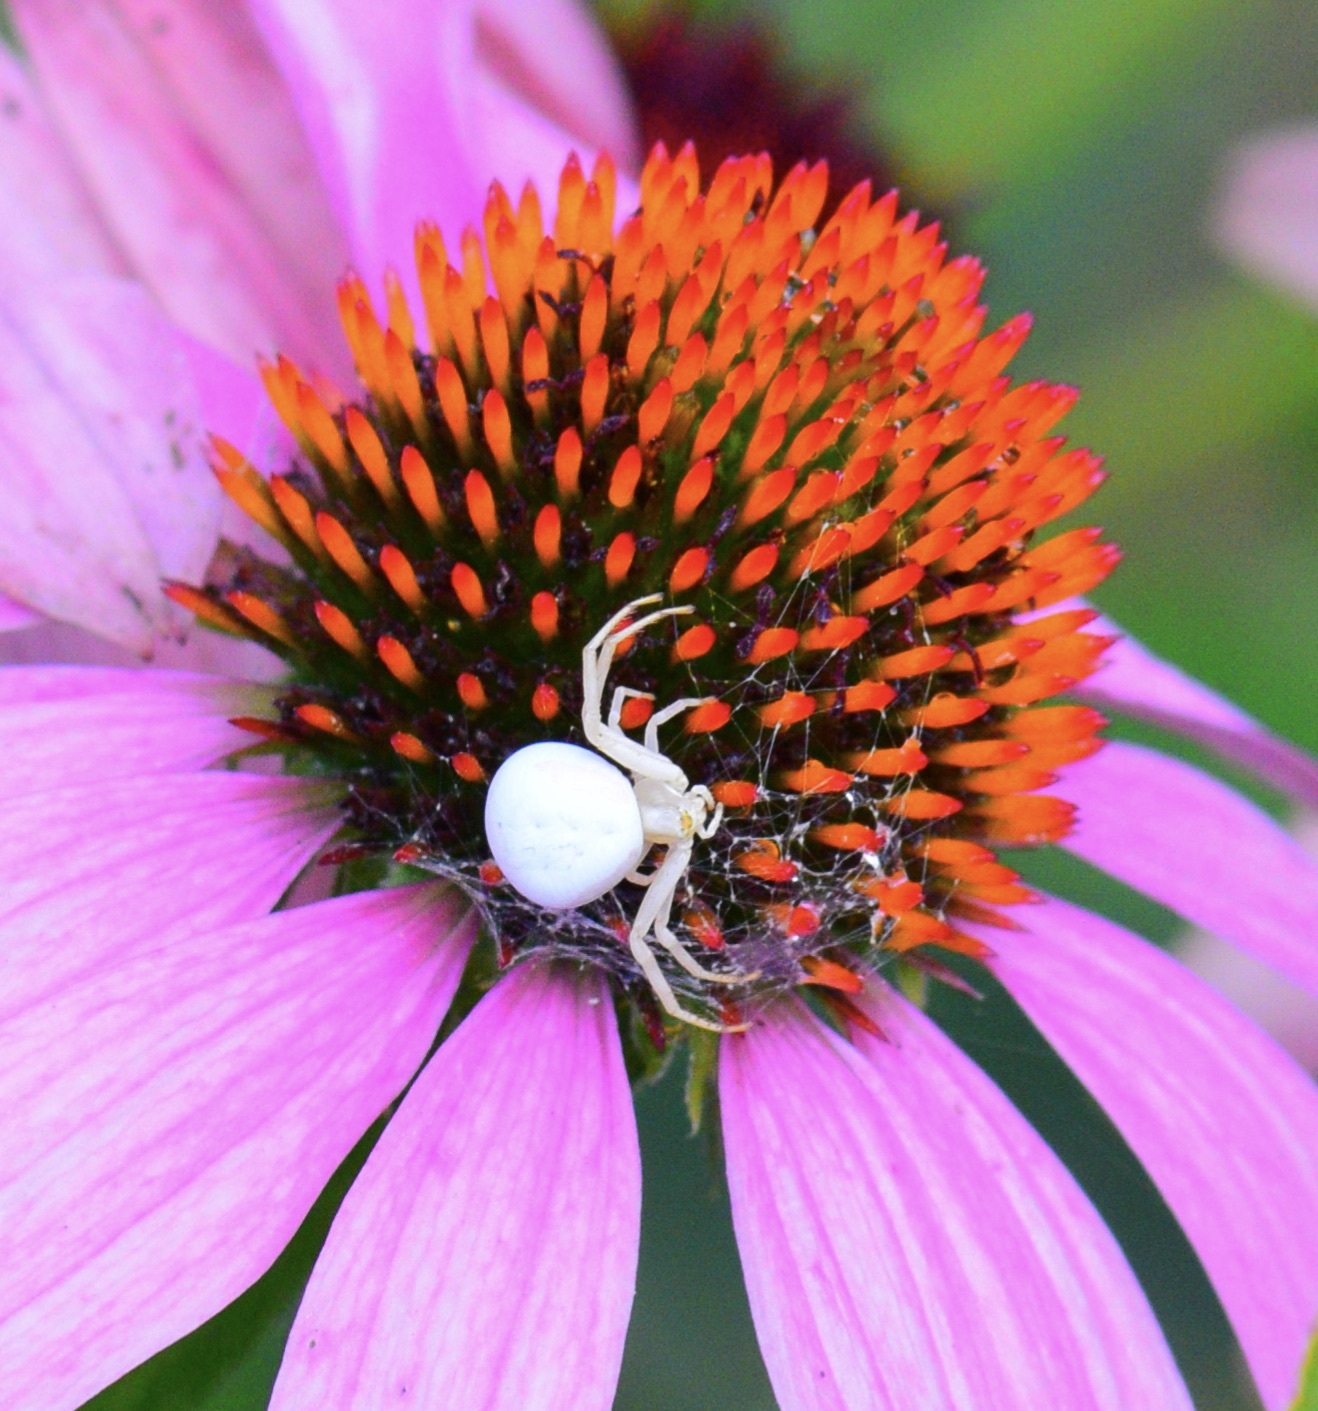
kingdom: Animalia
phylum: Arthropoda
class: Arachnida
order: Araneae
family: Thomisidae
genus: Misumena
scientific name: Misumena vatia
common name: Goldenrod crab spider
